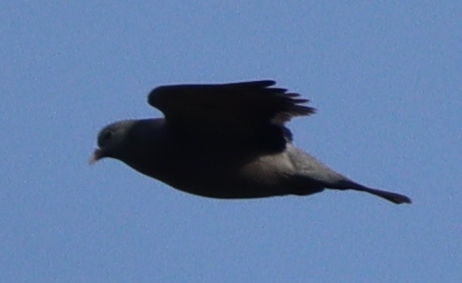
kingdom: Animalia
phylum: Chordata
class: Aves
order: Columbiformes
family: Columbidae
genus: Columba
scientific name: Columba oenas
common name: Stock dove
